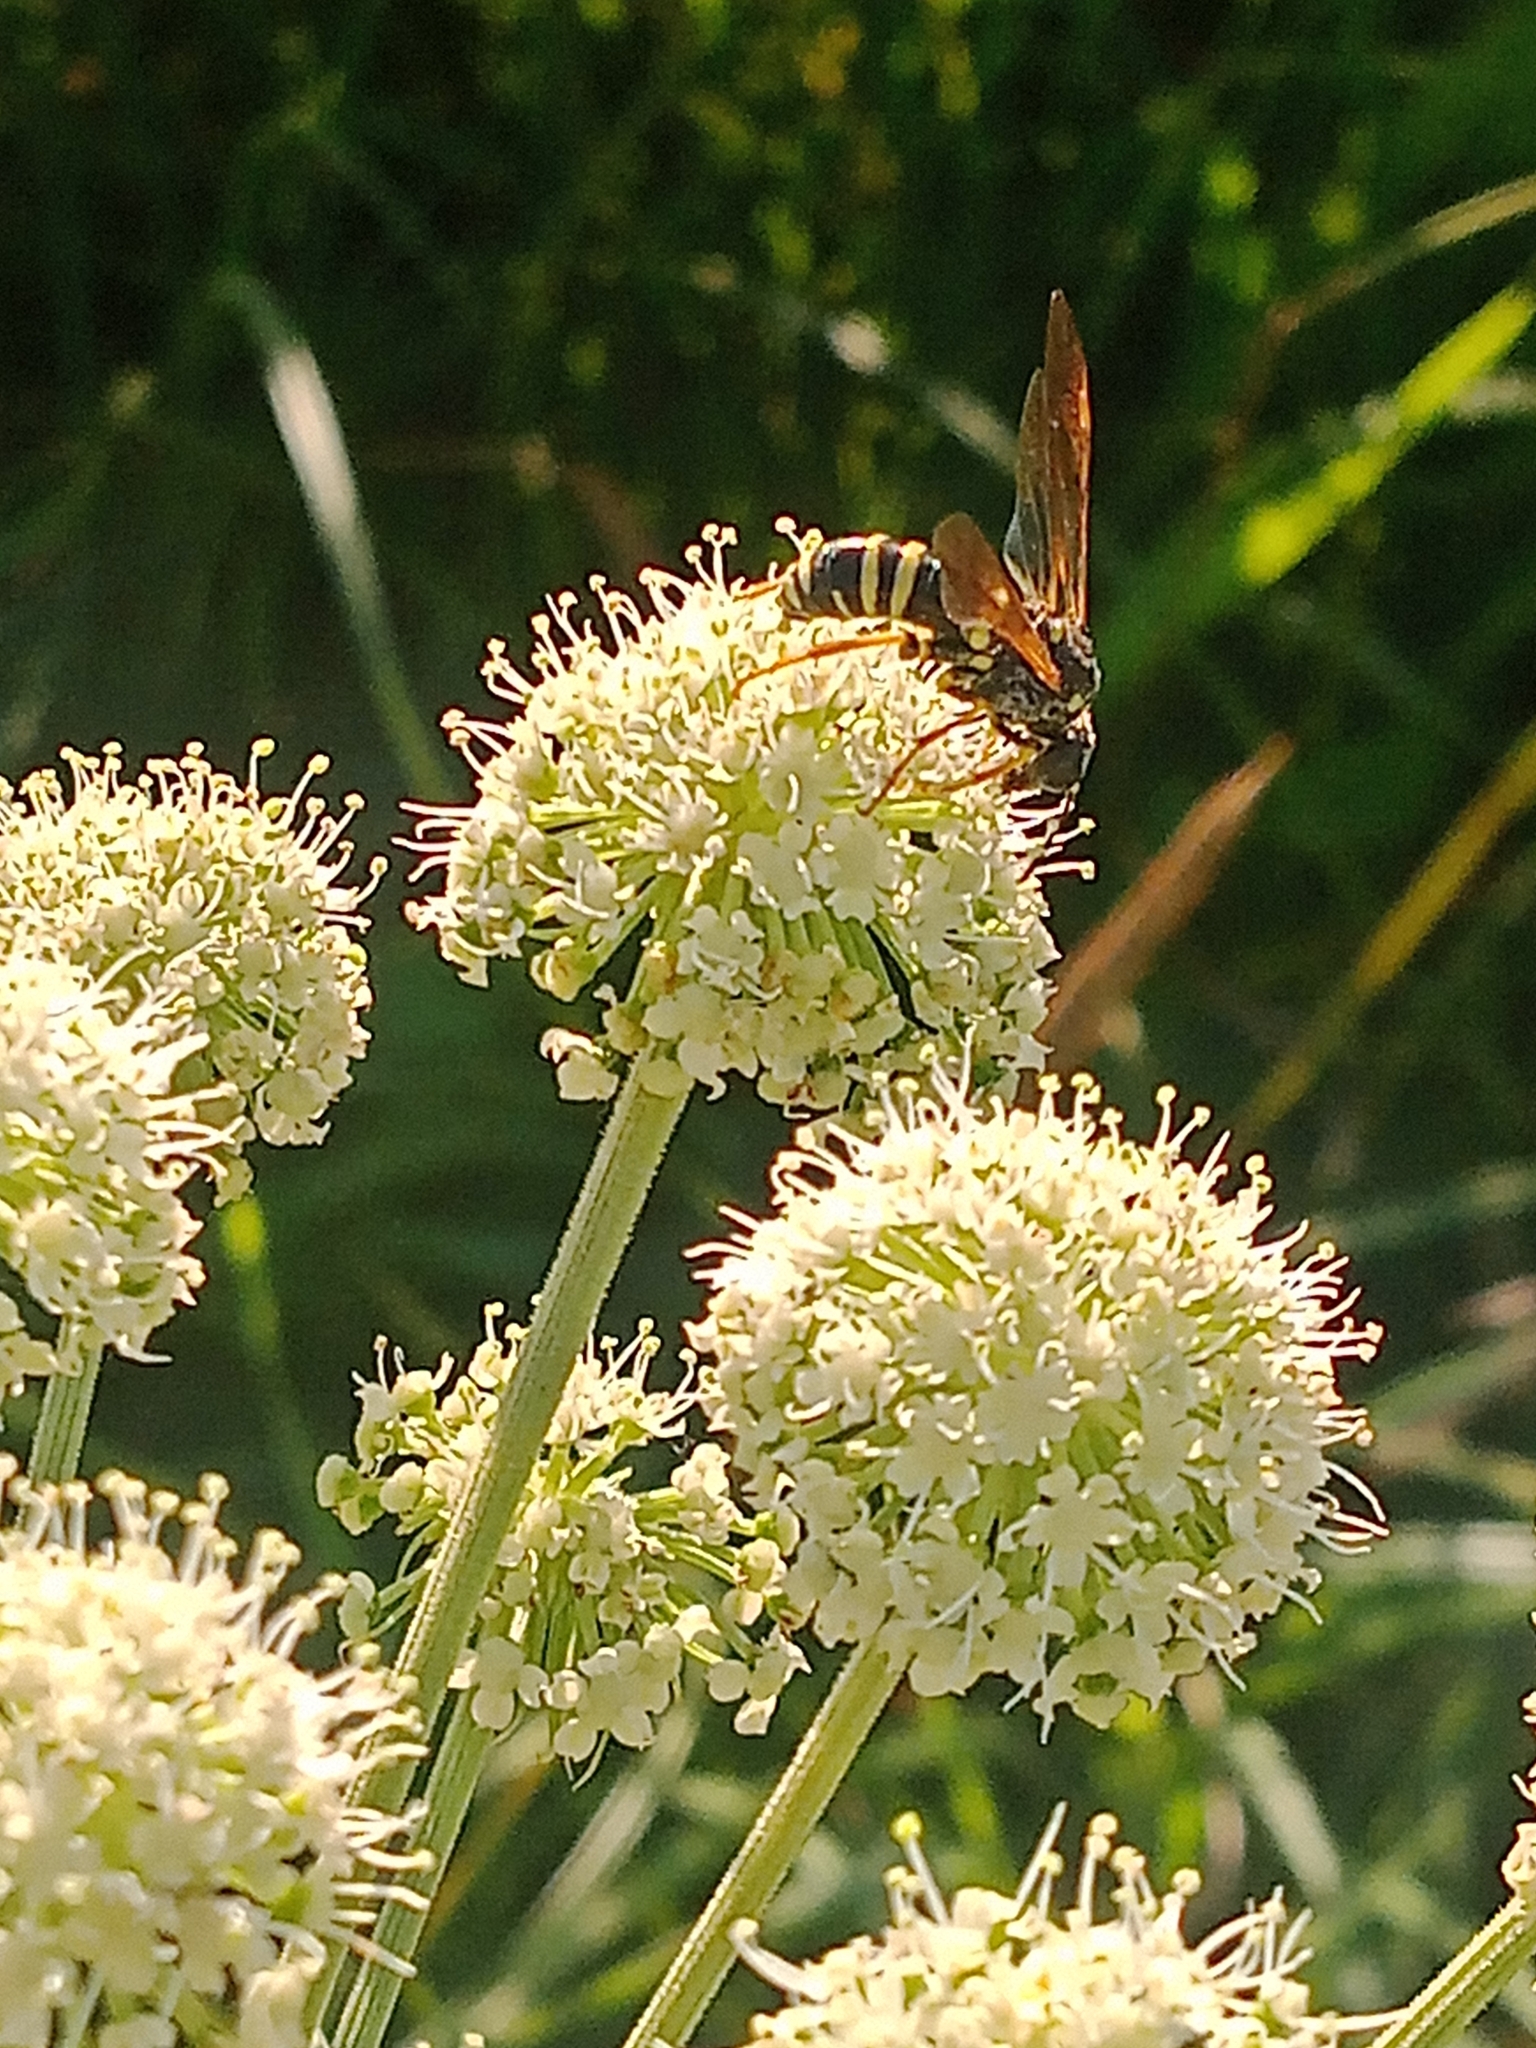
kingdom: Animalia
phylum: Arthropoda
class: Insecta
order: Hymenoptera
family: Tenthredinidae
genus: Tenthredo
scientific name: Tenthredo omissa
